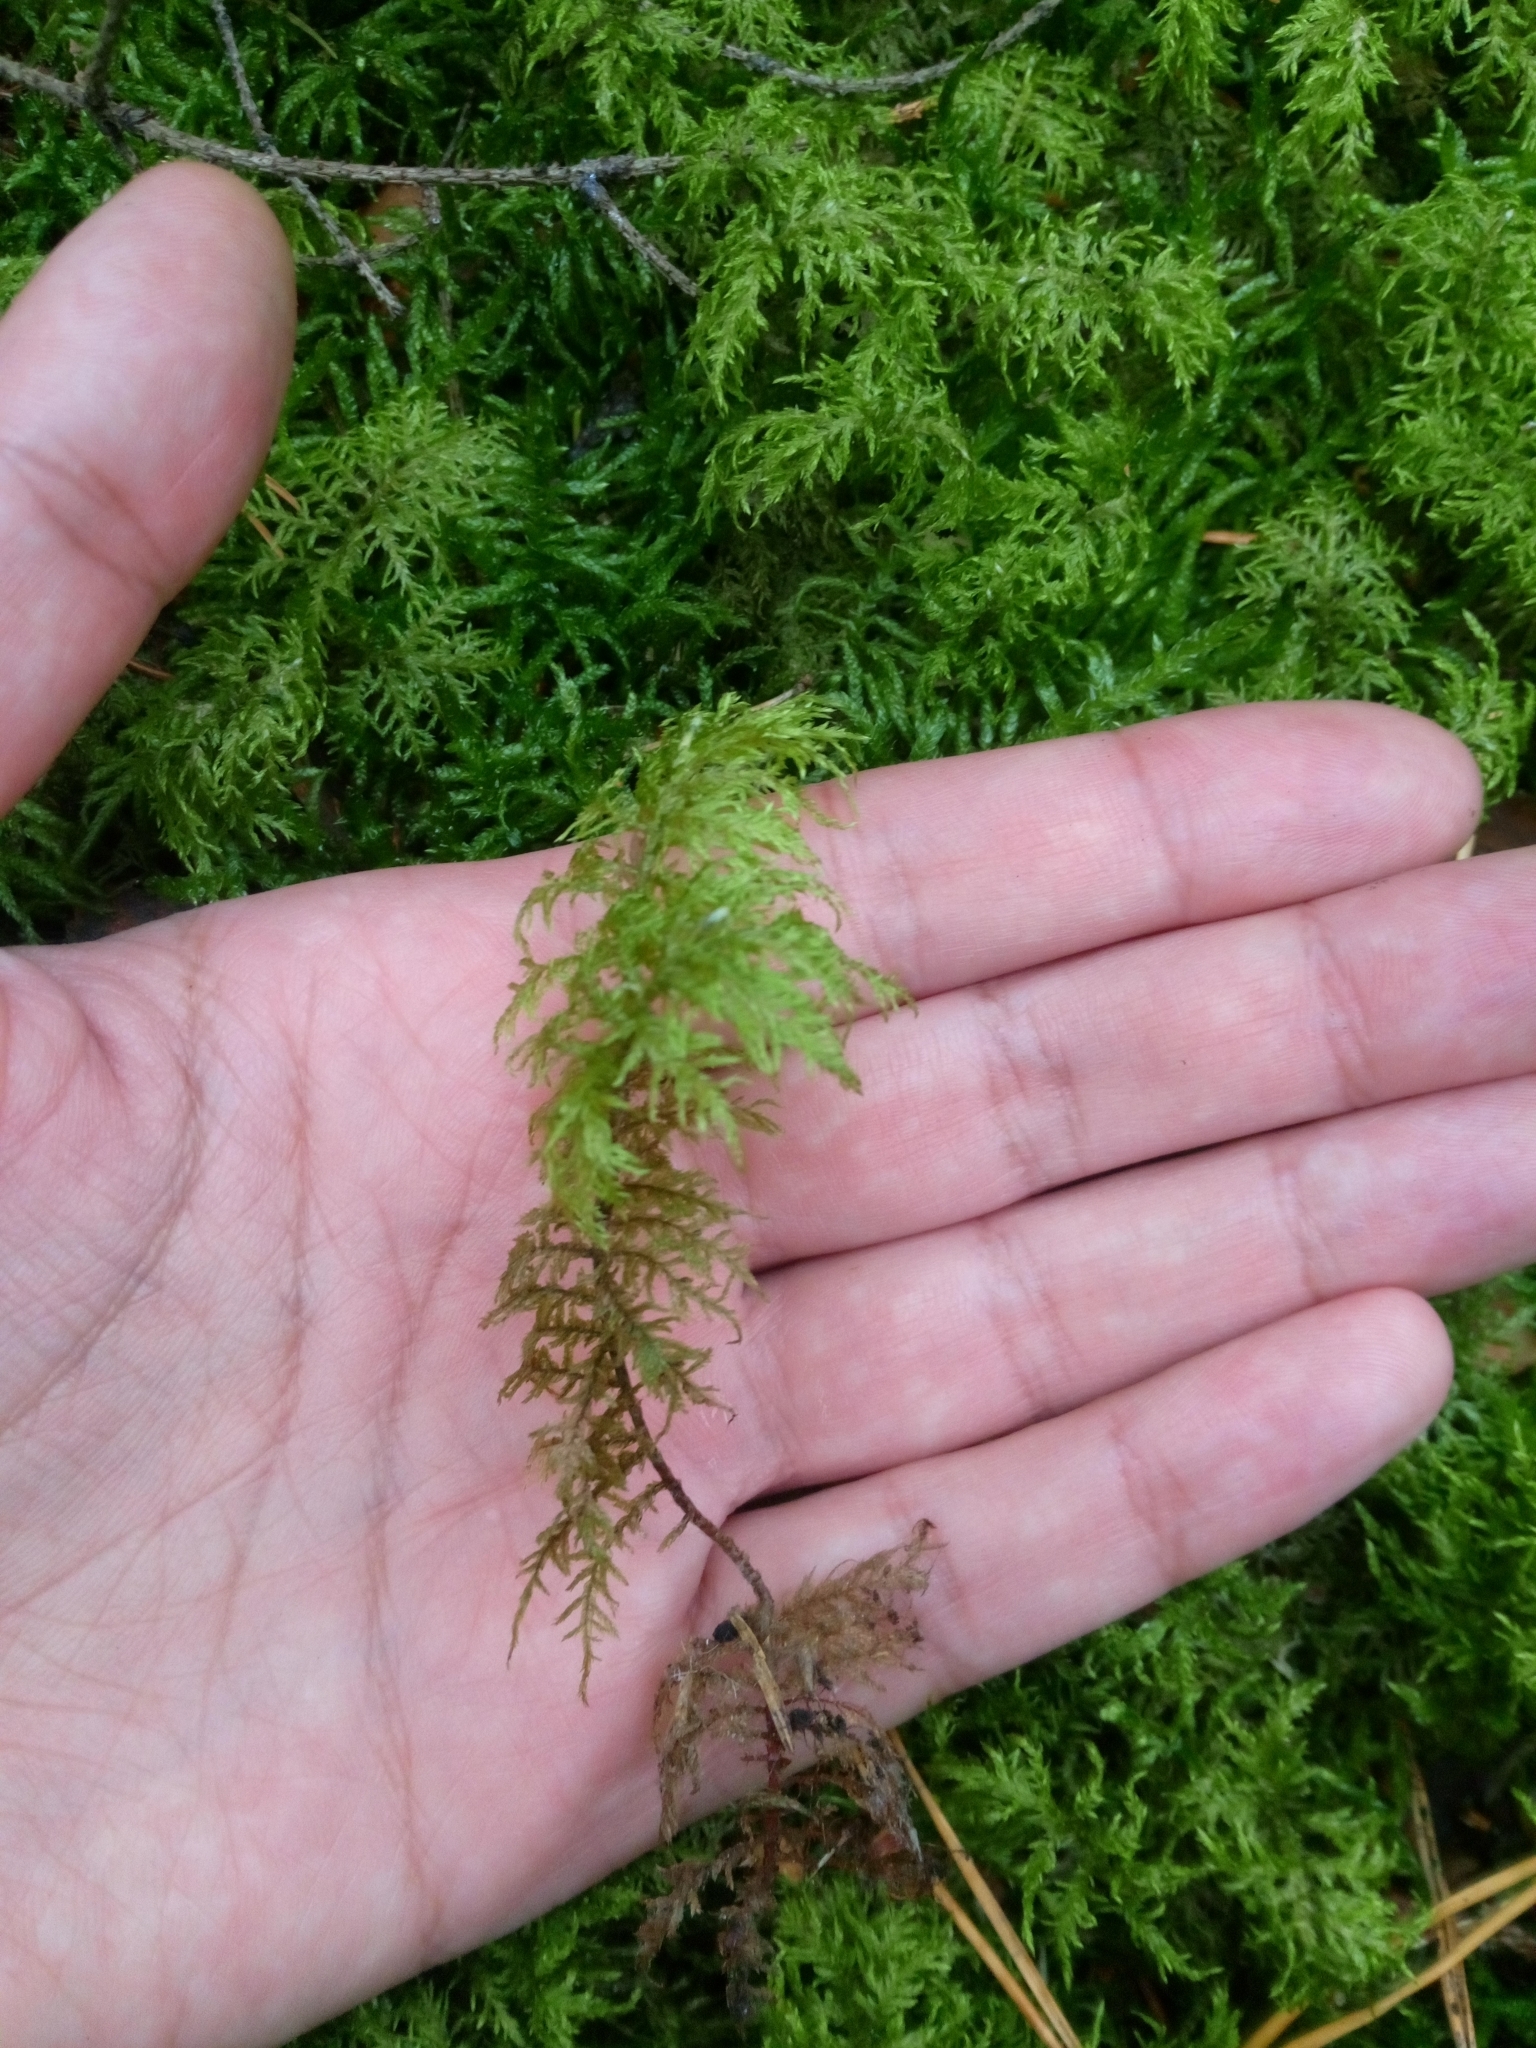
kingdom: Plantae
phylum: Bryophyta
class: Bryopsida
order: Hypnales
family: Hylocomiaceae
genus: Hylocomium
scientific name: Hylocomium splendens
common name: Stairstep moss
